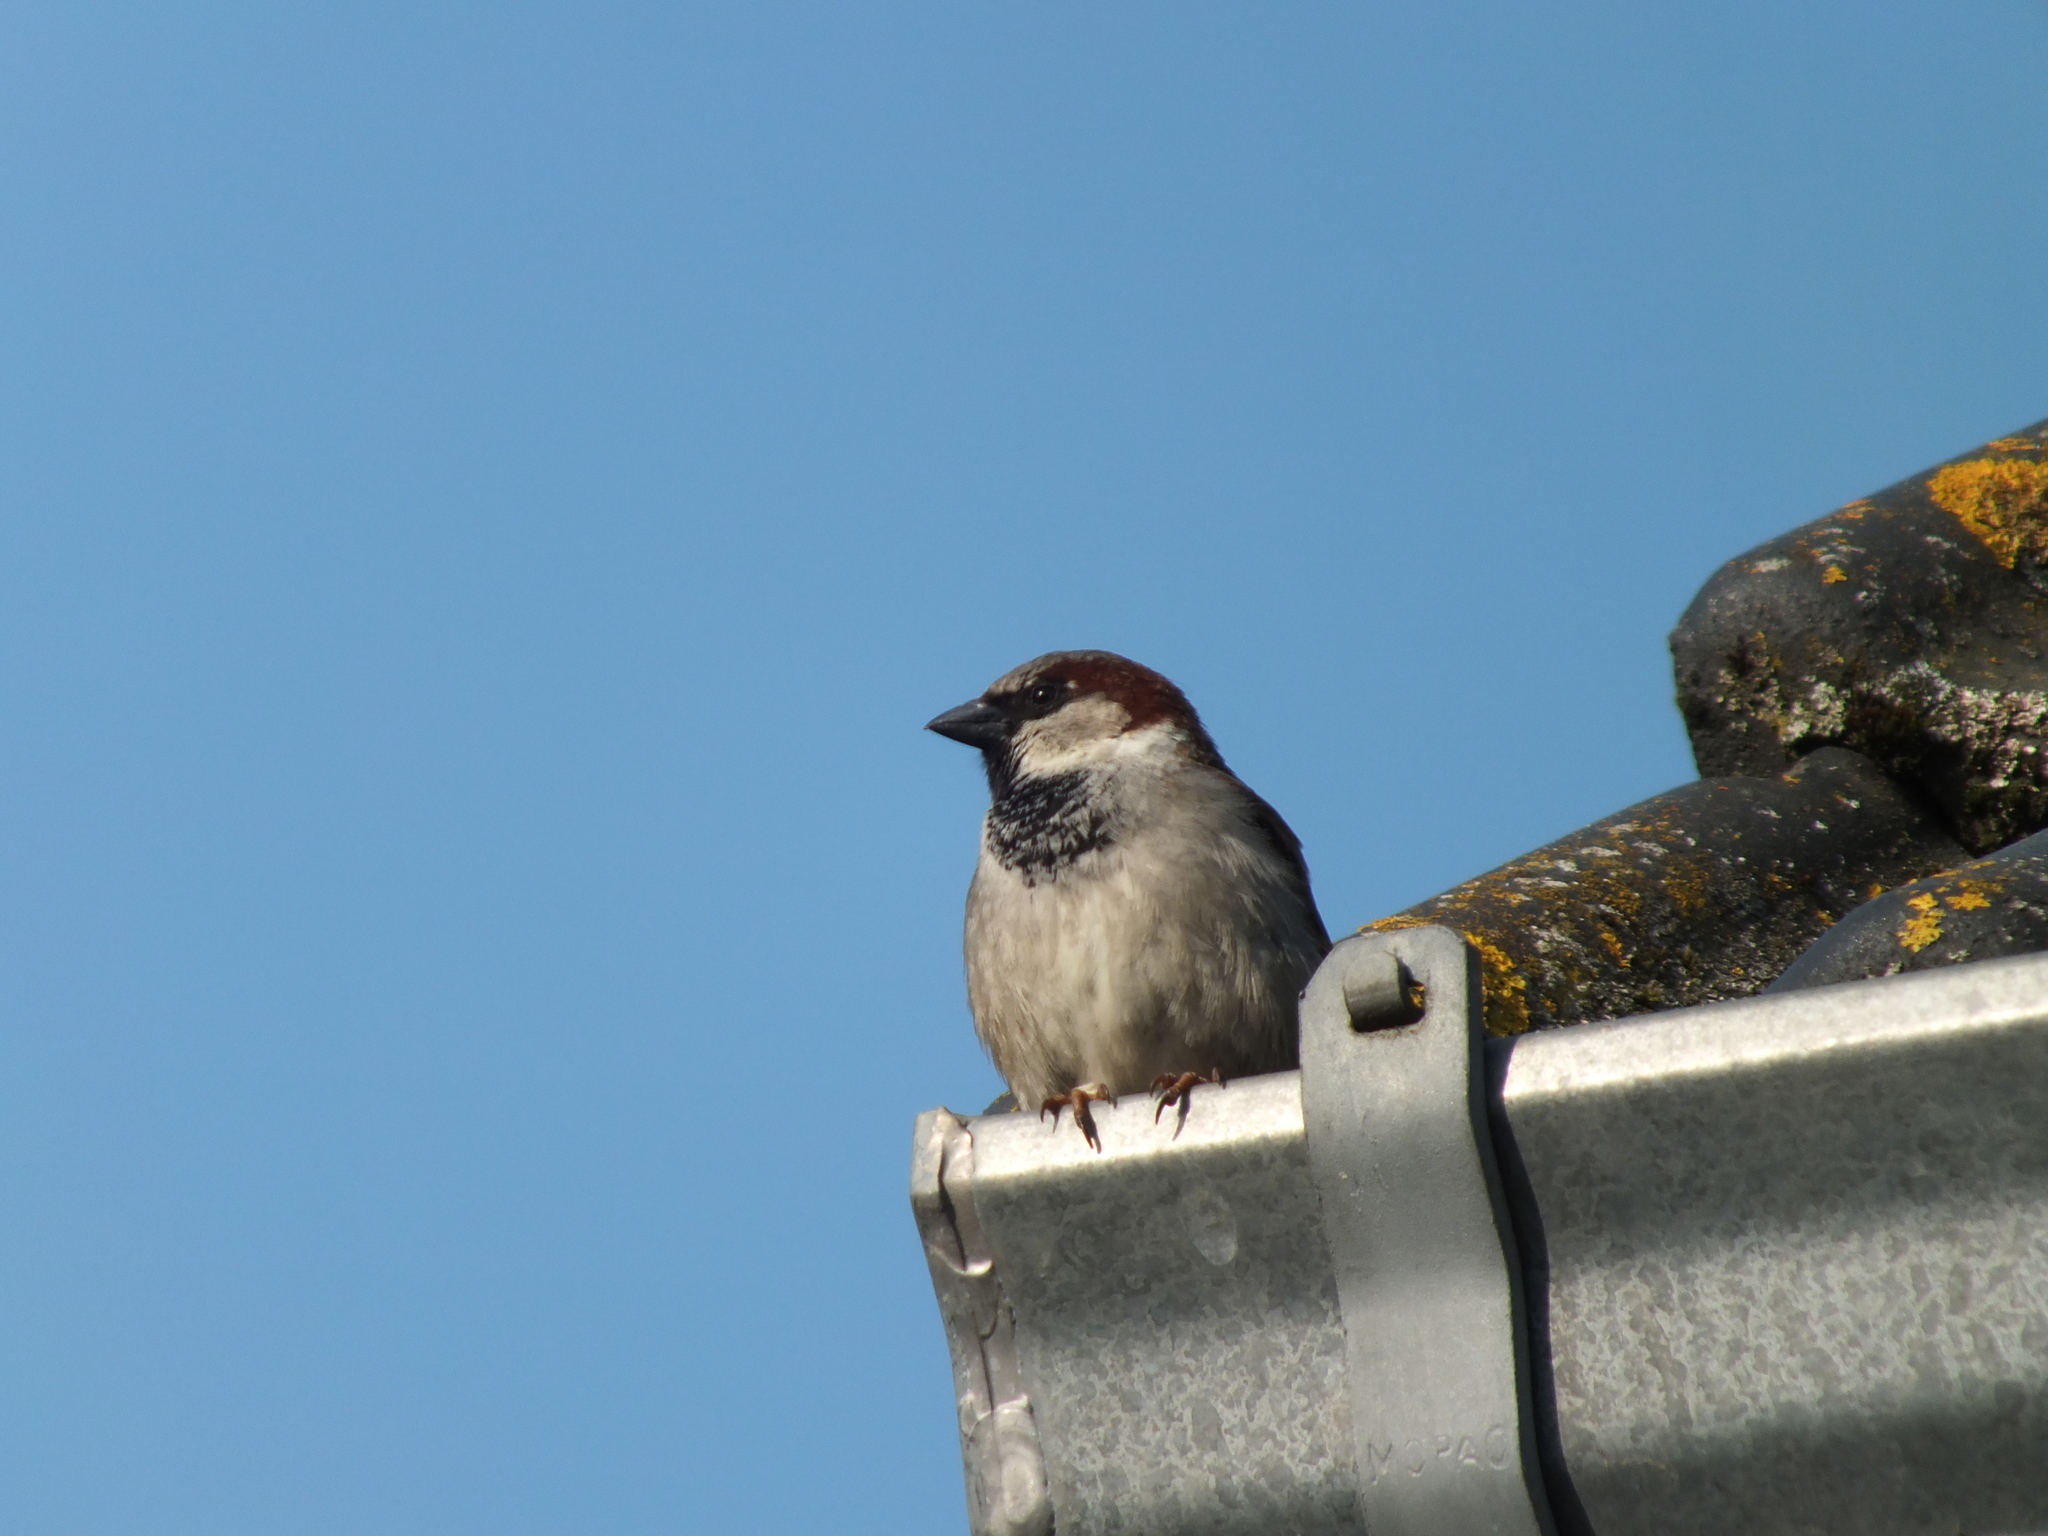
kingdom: Animalia
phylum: Chordata
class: Aves
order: Passeriformes
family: Passeridae
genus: Passer
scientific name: Passer domesticus
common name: House sparrow
